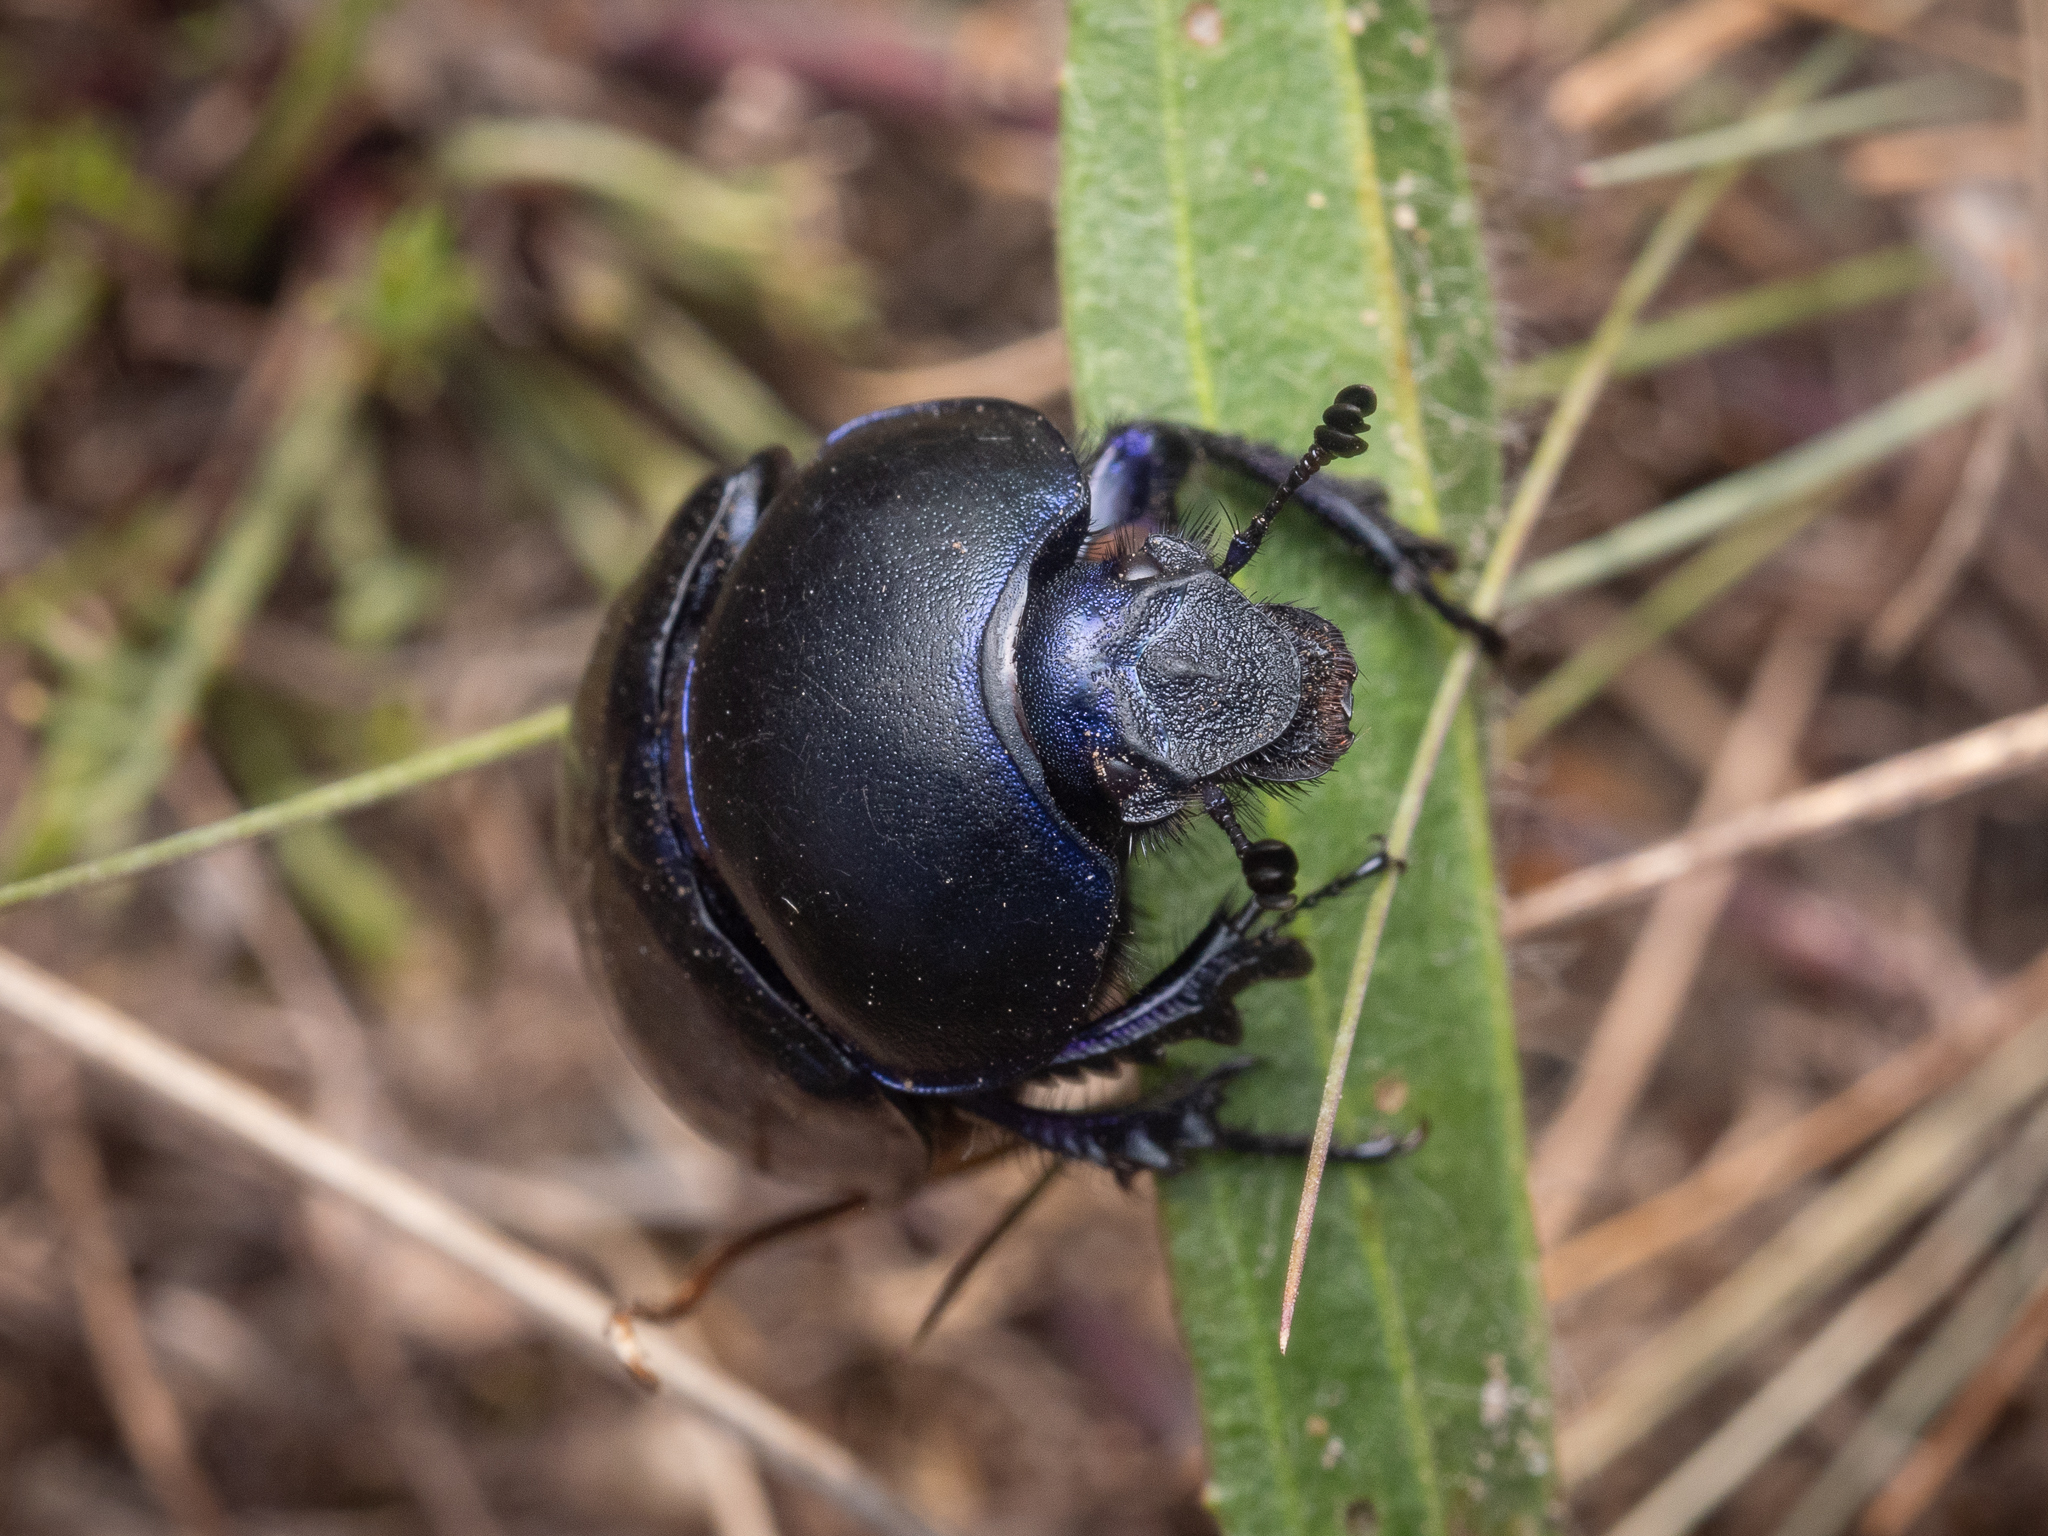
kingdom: Animalia
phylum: Arthropoda
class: Insecta
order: Coleoptera
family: Geotrupidae
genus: Trypocopris
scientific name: Trypocopris vernalis
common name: Spring dumbledor
